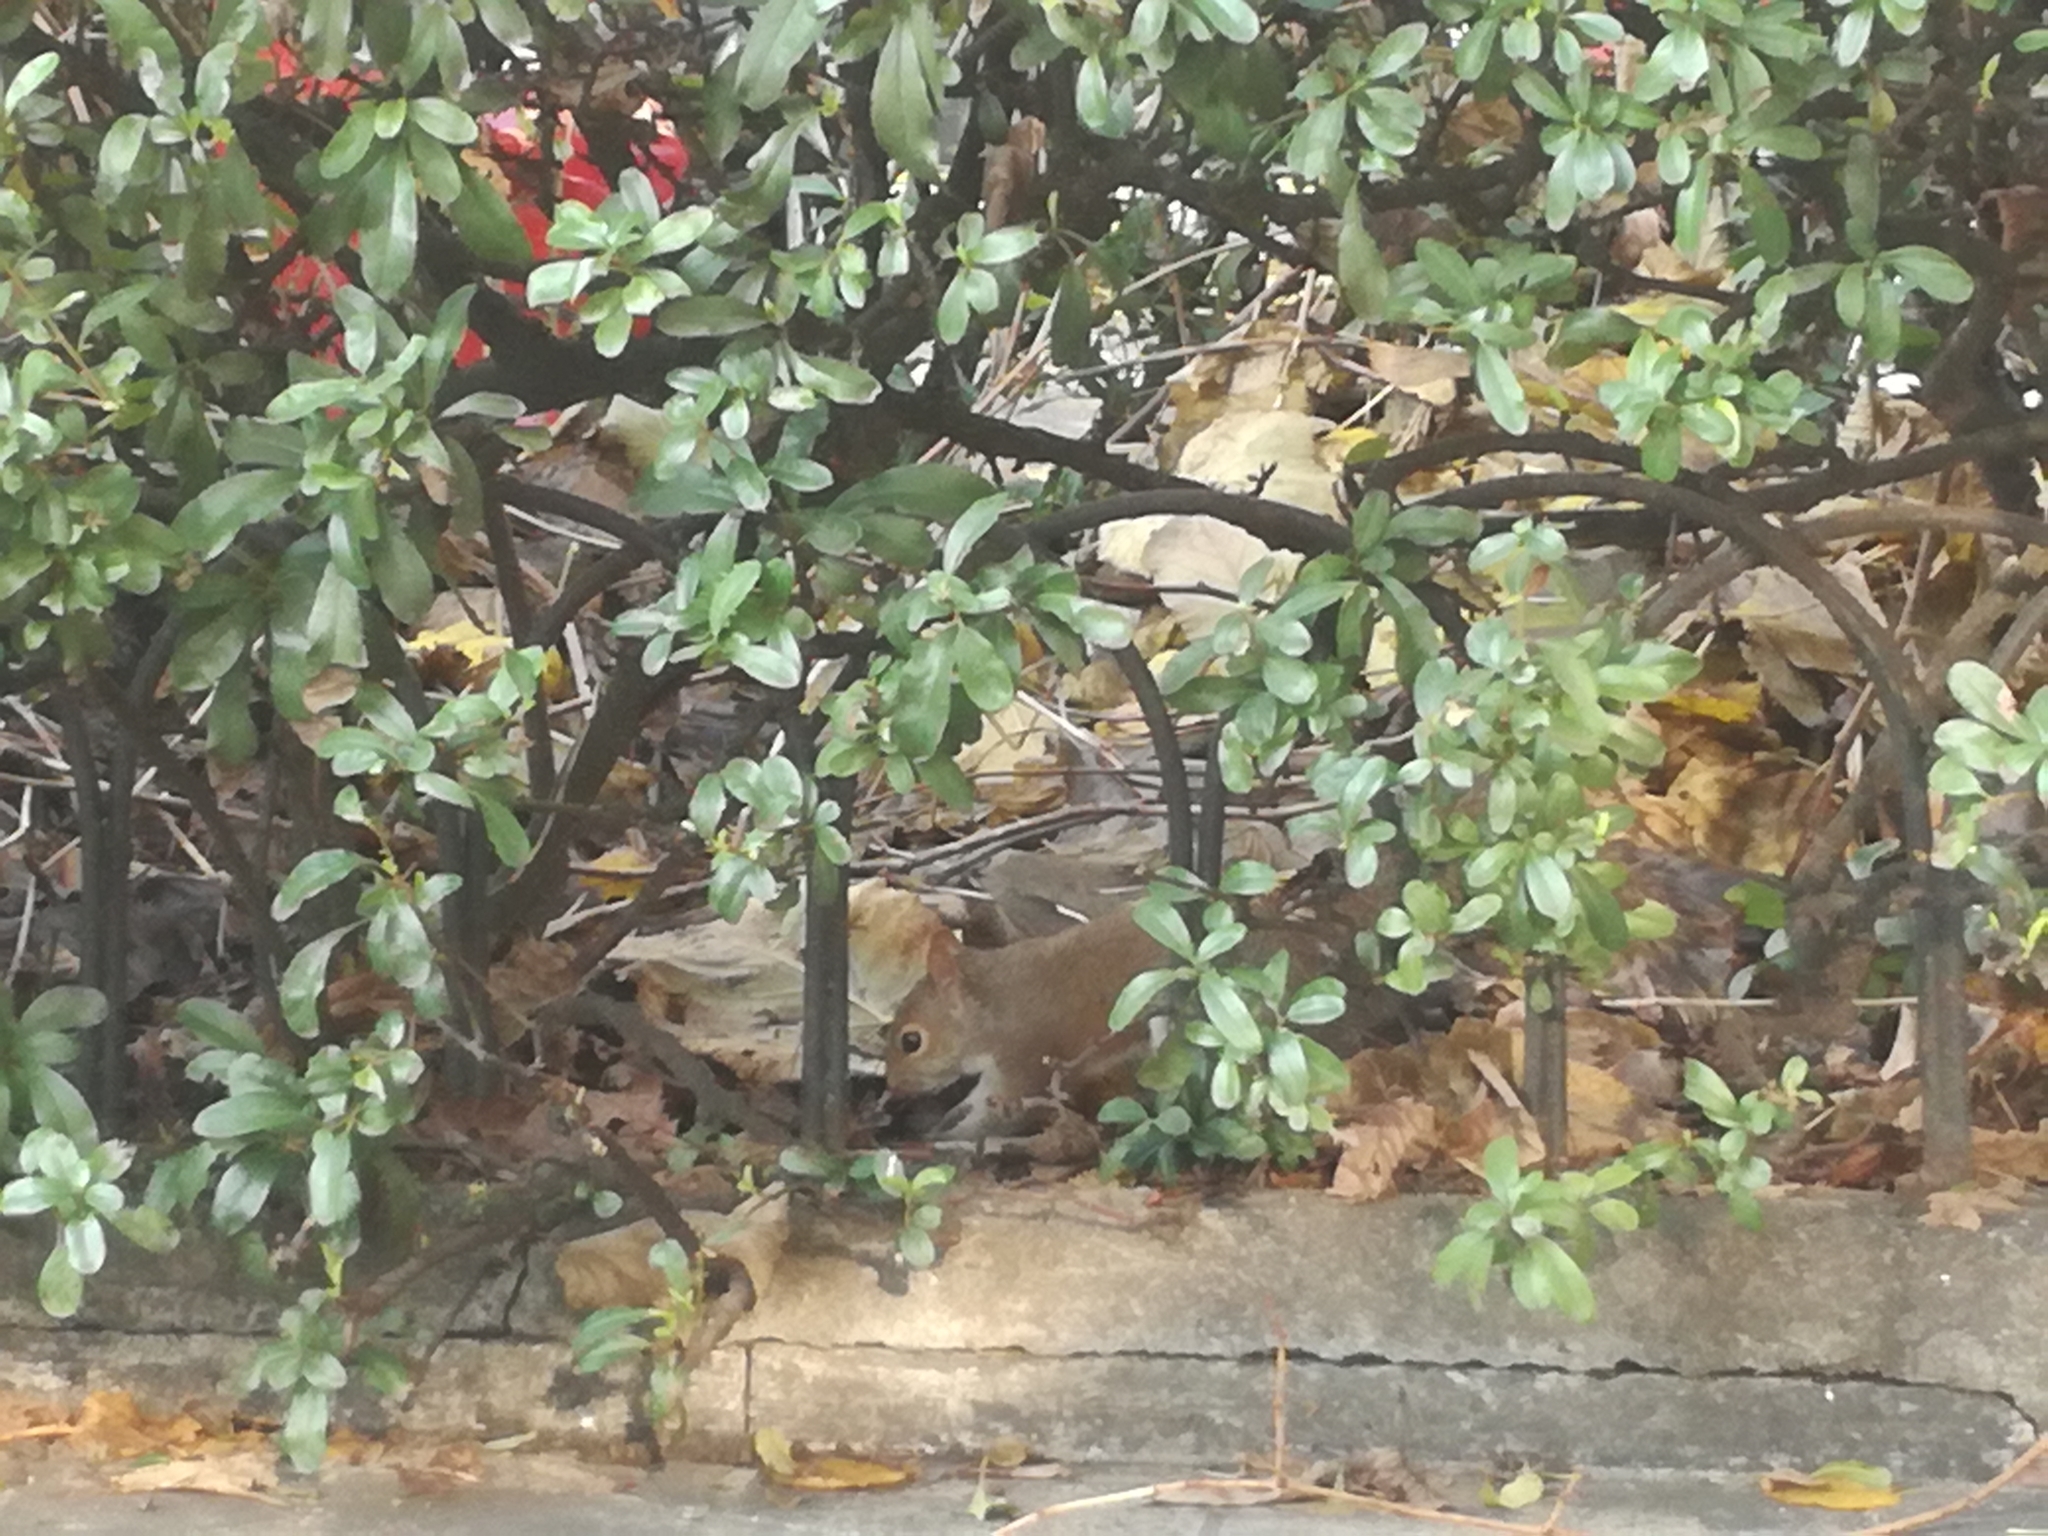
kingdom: Animalia
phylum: Chordata
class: Mammalia
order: Rodentia
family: Sciuridae
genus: Sciurus
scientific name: Sciurus carolinensis
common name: Eastern gray squirrel
